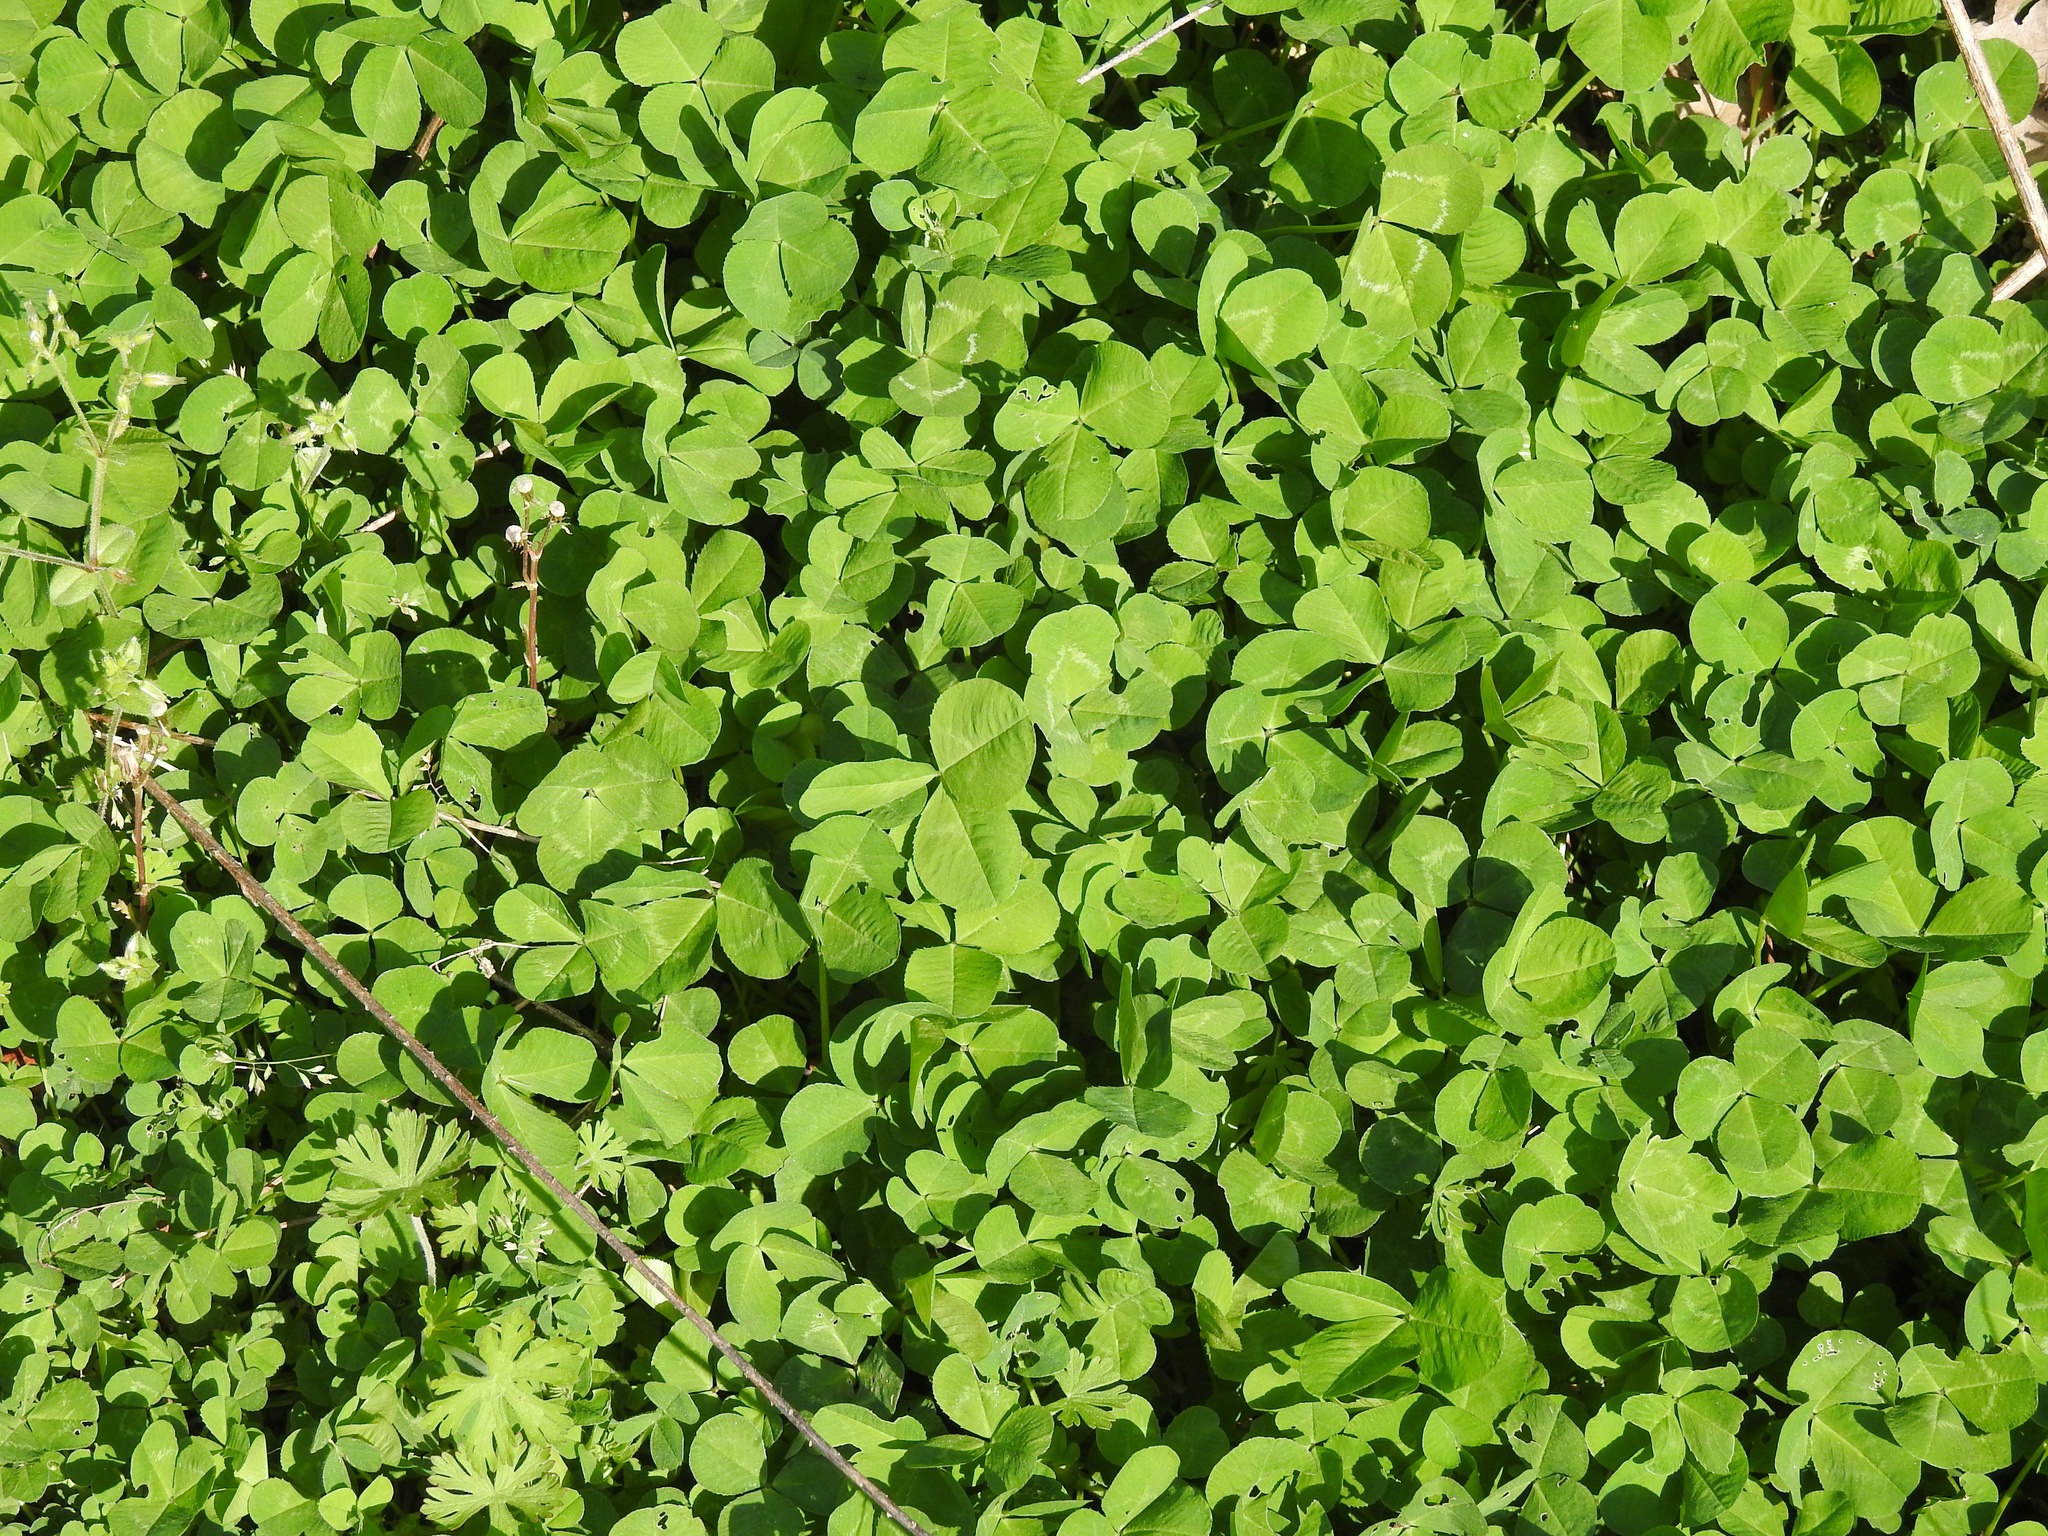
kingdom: Plantae
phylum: Tracheophyta
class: Magnoliopsida
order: Fabales
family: Fabaceae
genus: Trifolium
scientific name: Trifolium repens
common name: White clover
